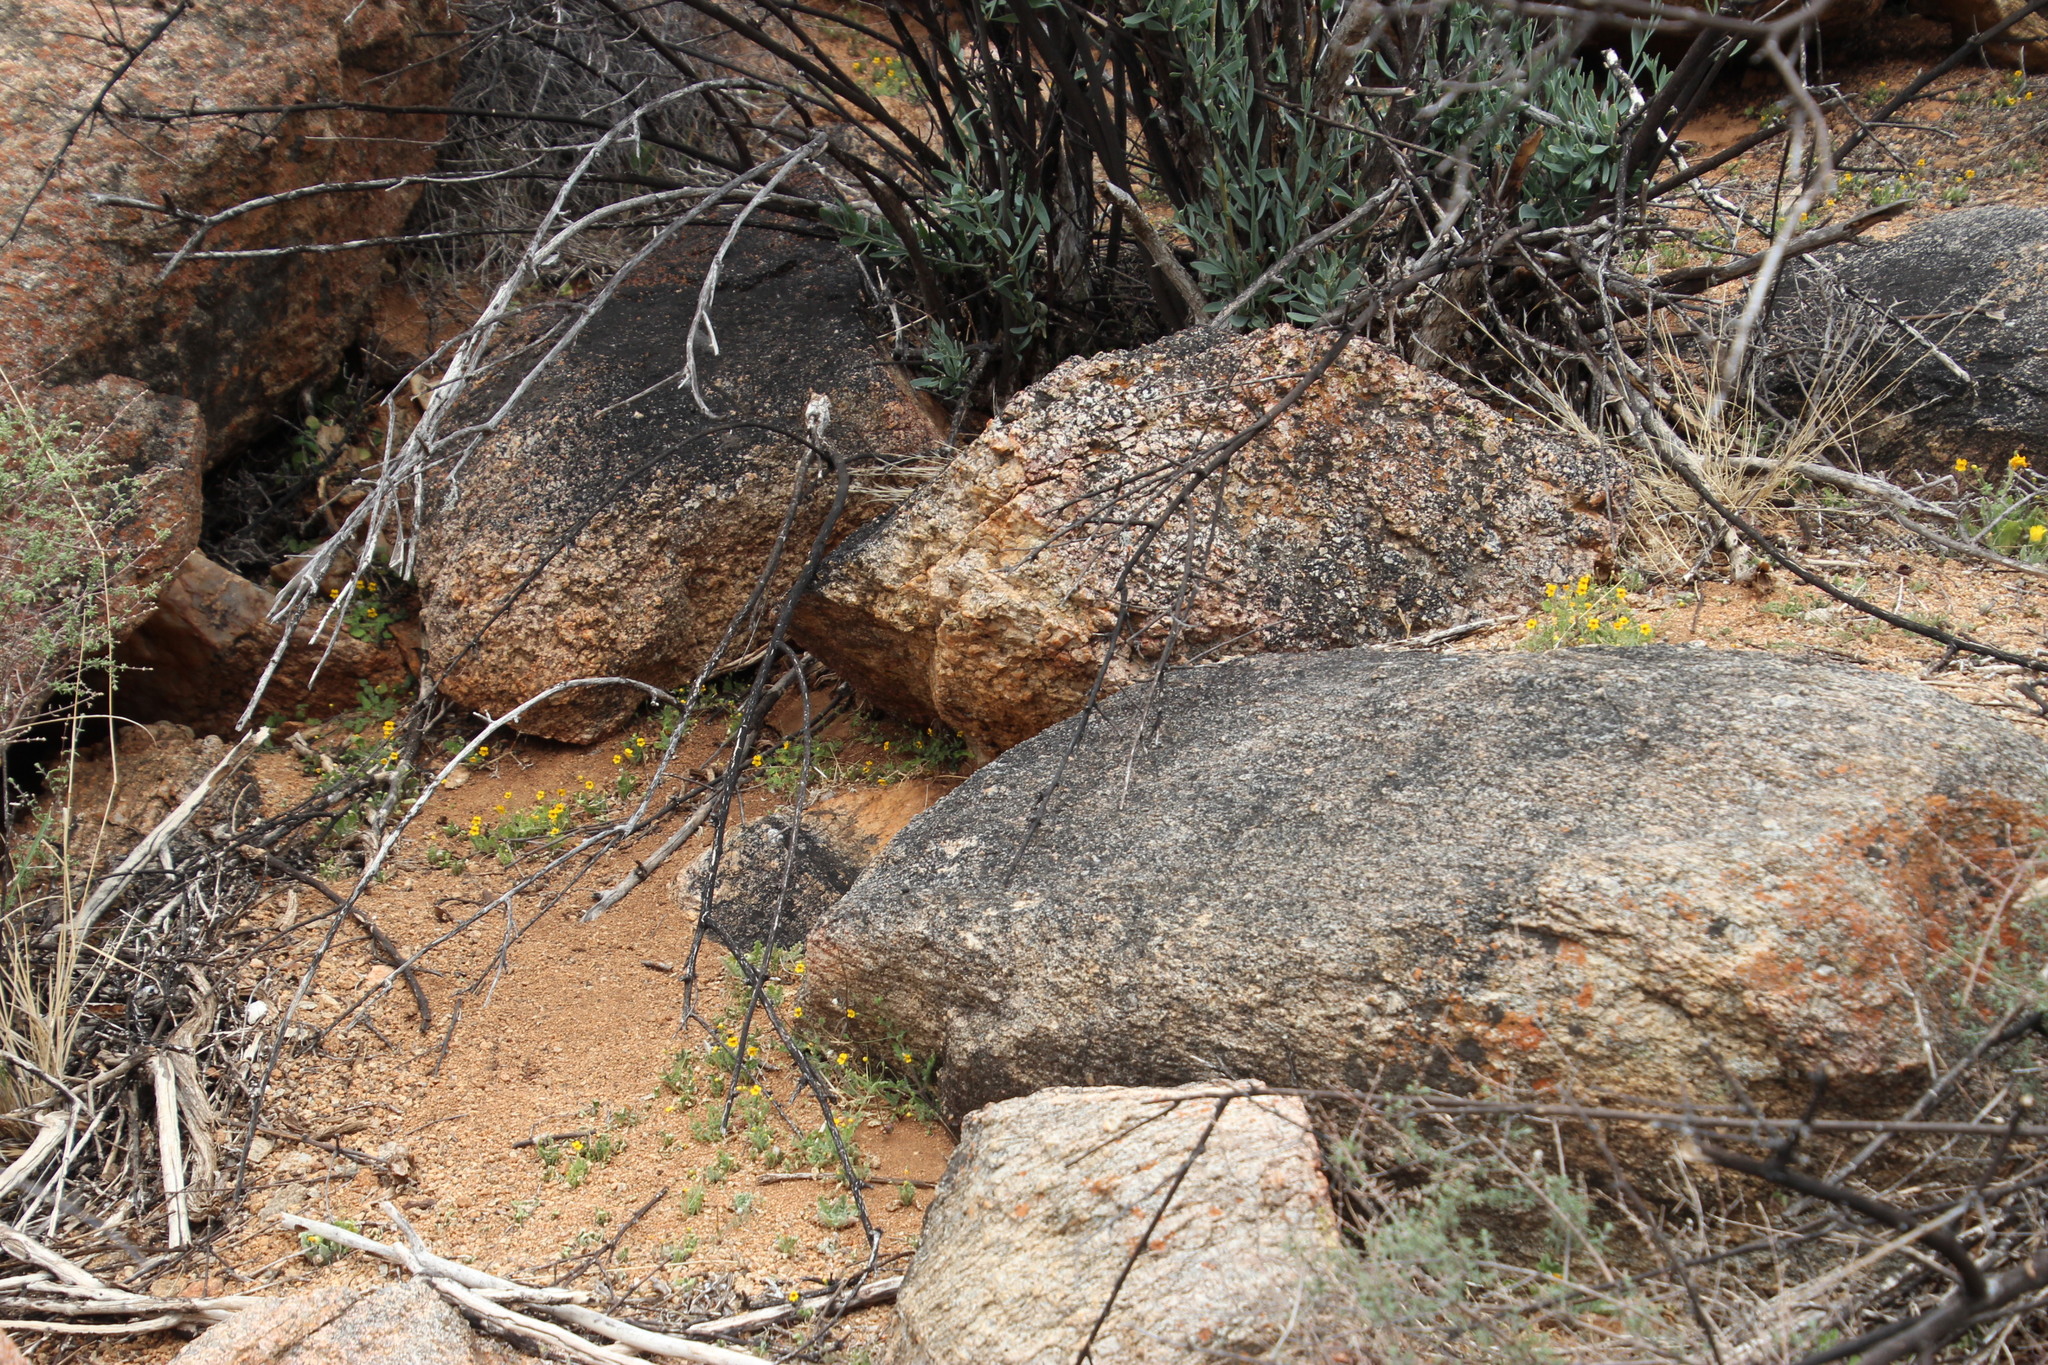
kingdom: Plantae
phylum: Tracheophyta
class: Magnoliopsida
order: Lamiales
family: Scrophulariaceae
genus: Jamesbrittenia
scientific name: Jamesbrittenia pedunculosa
